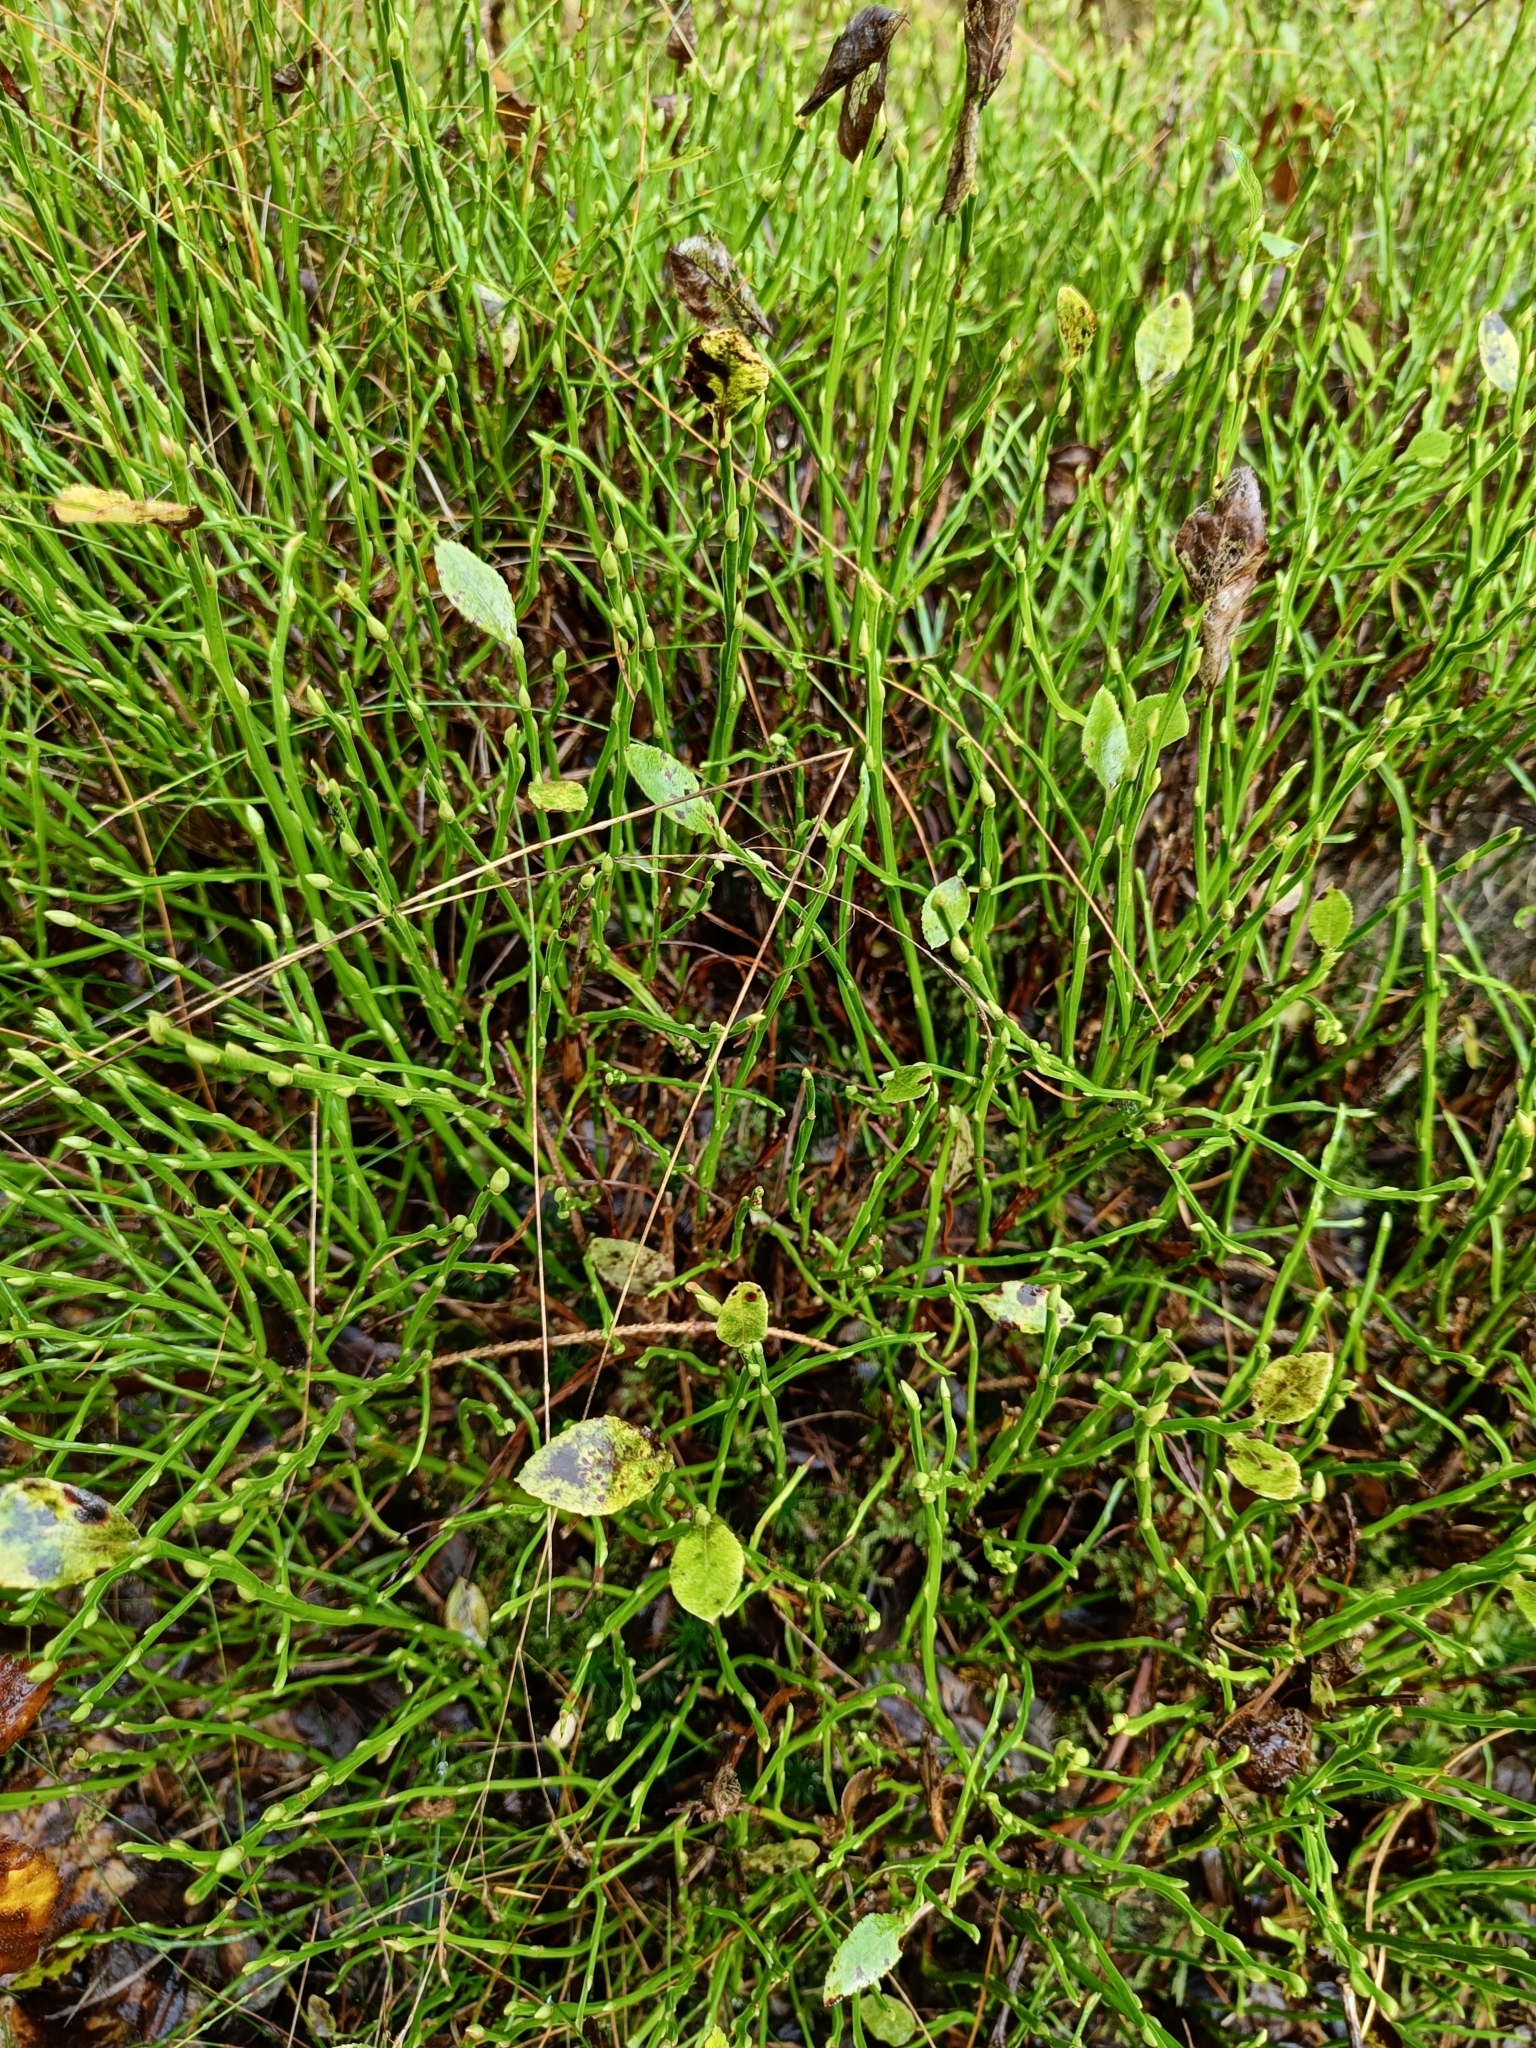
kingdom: Plantae
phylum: Tracheophyta
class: Magnoliopsida
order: Ericales
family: Ericaceae
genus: Vaccinium
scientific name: Vaccinium myrtillus
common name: Bilberry
